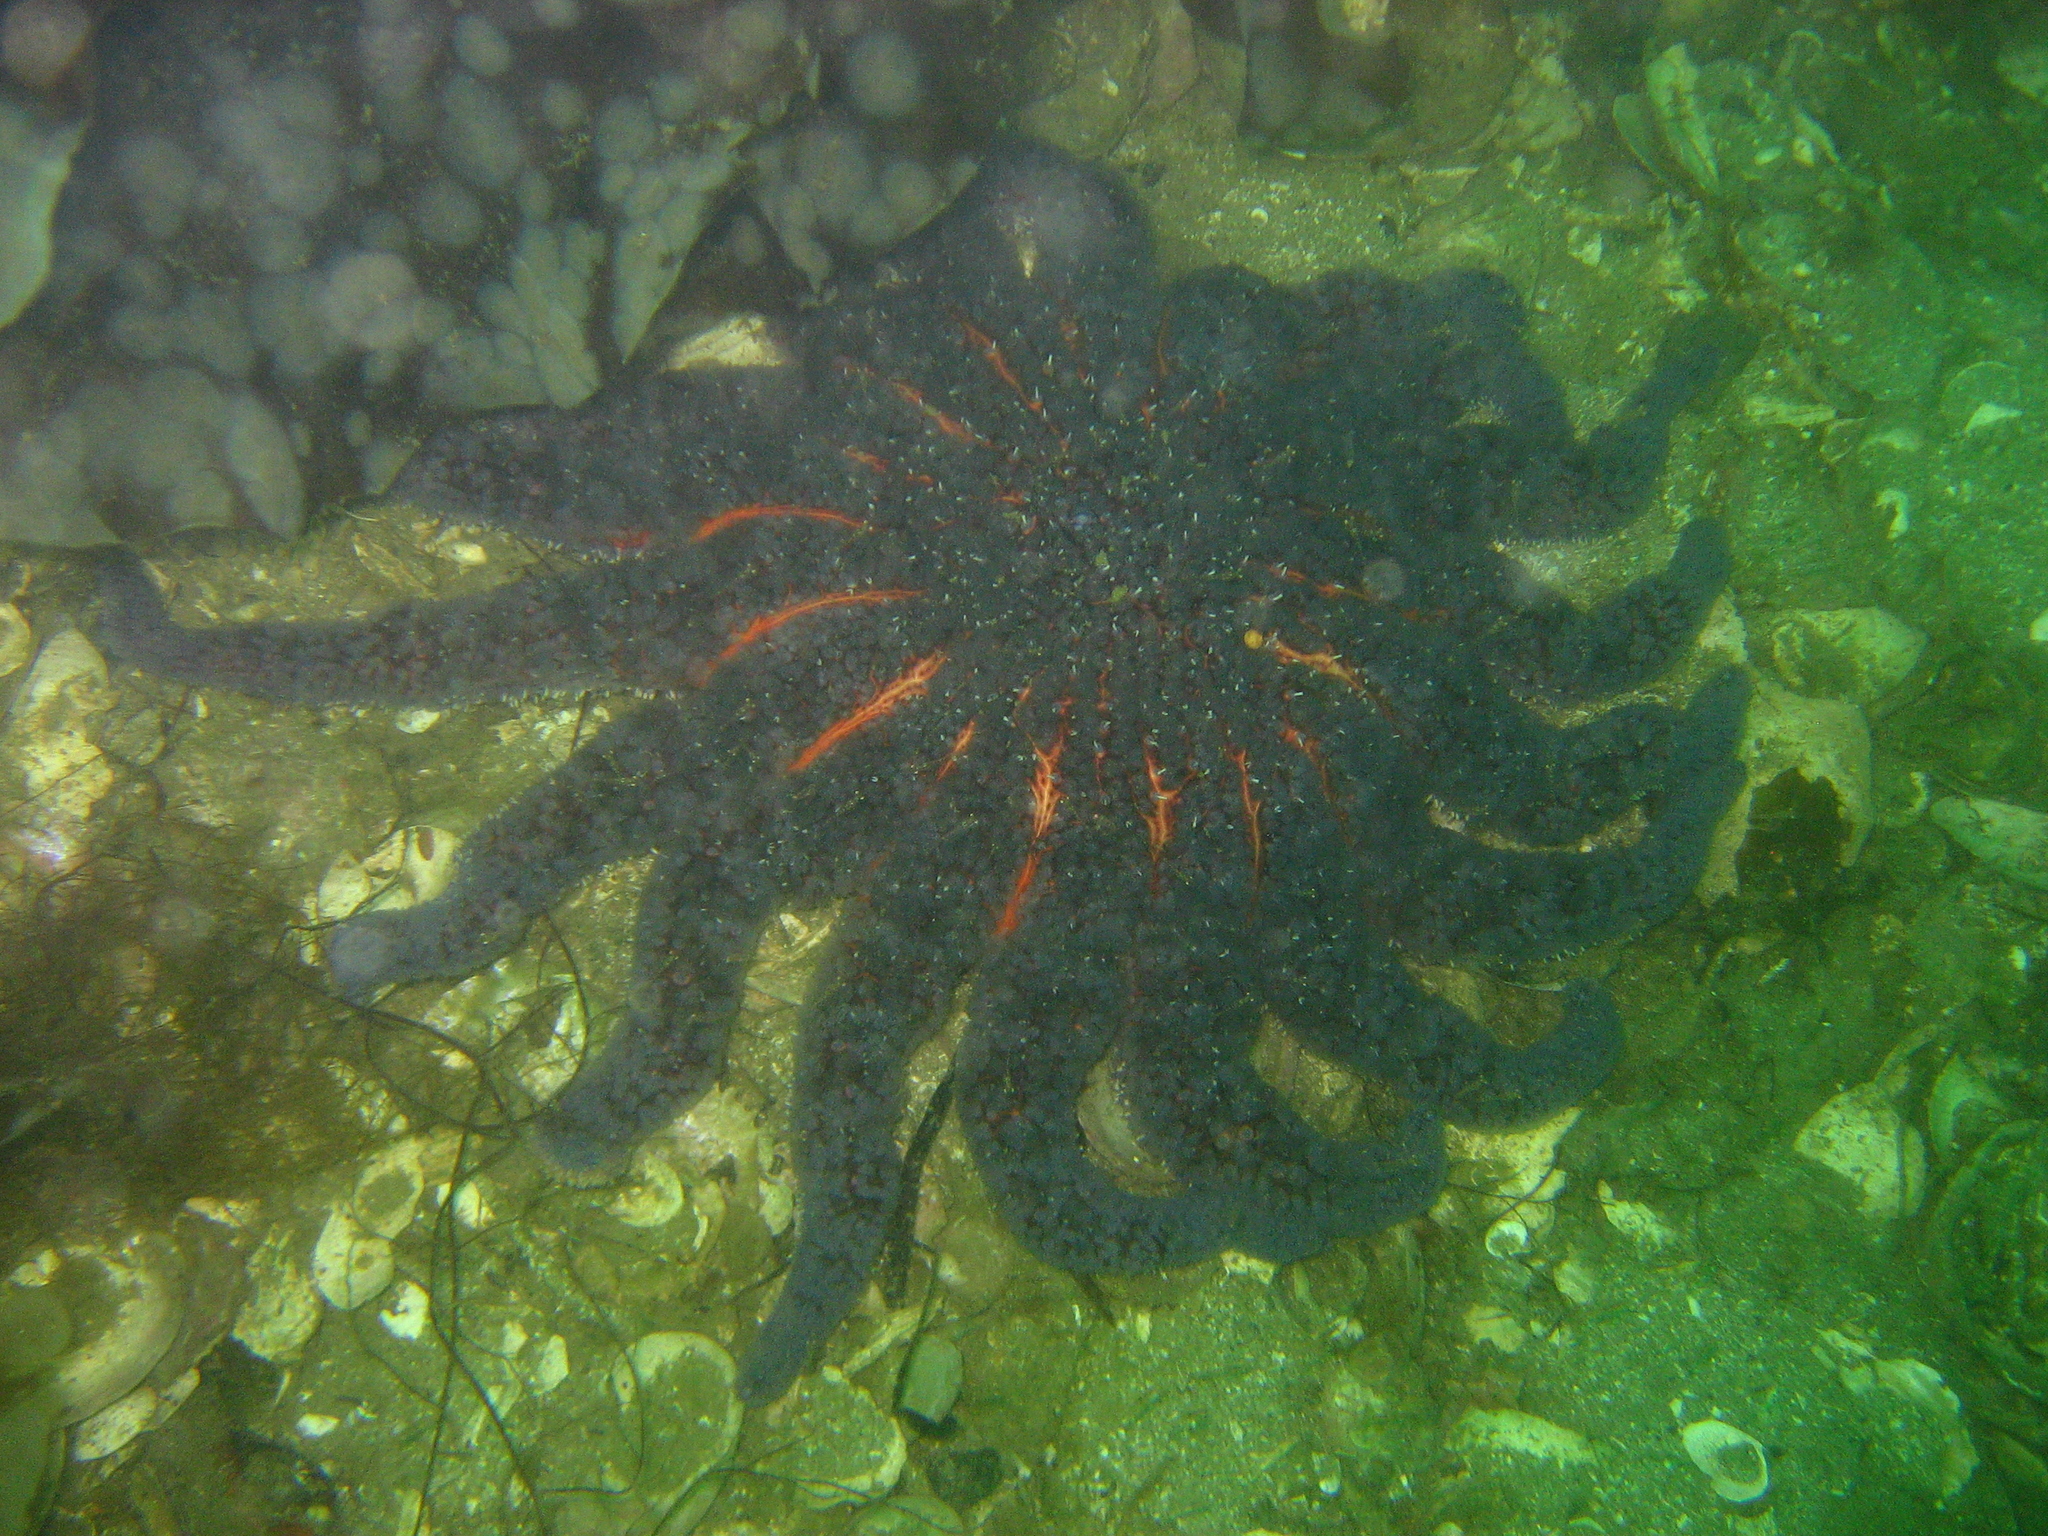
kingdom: Animalia
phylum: Echinodermata
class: Asteroidea
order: Forcipulatida
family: Asteriidae
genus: Pycnopodia
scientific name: Pycnopodia helianthoides
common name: Rag mop
